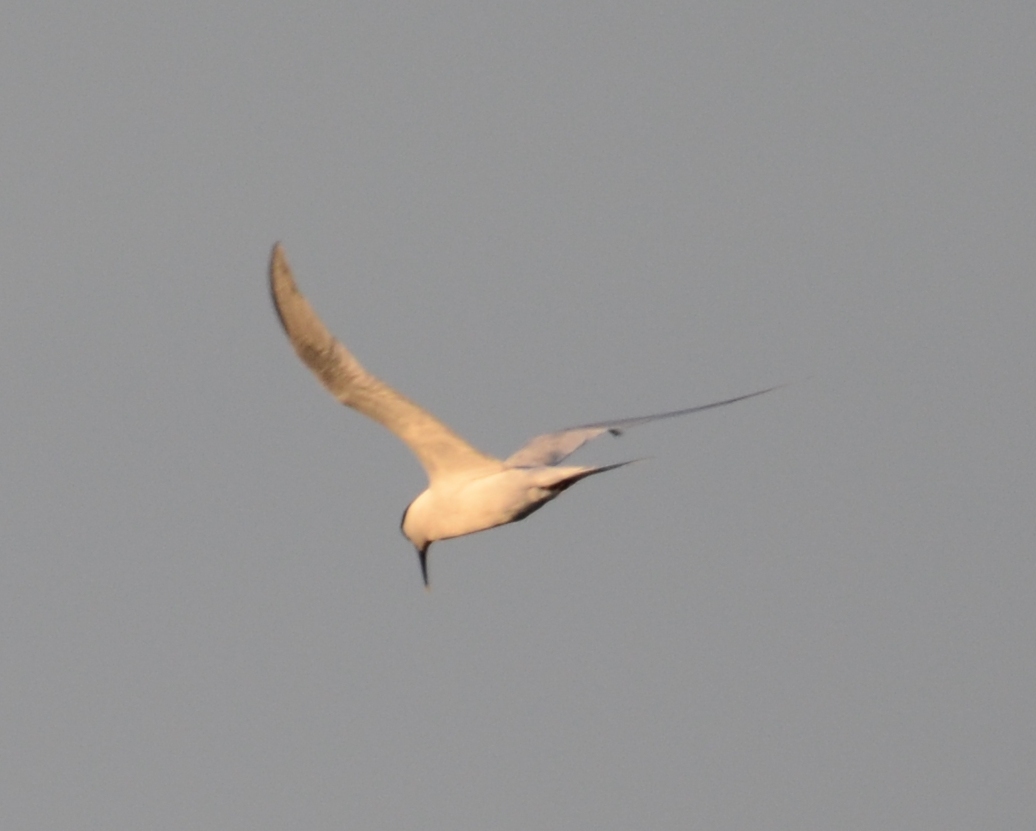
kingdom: Animalia
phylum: Chordata
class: Aves
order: Charadriiformes
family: Laridae
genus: Thalasseus
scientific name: Thalasseus sandvicensis
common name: Sandwich tern
